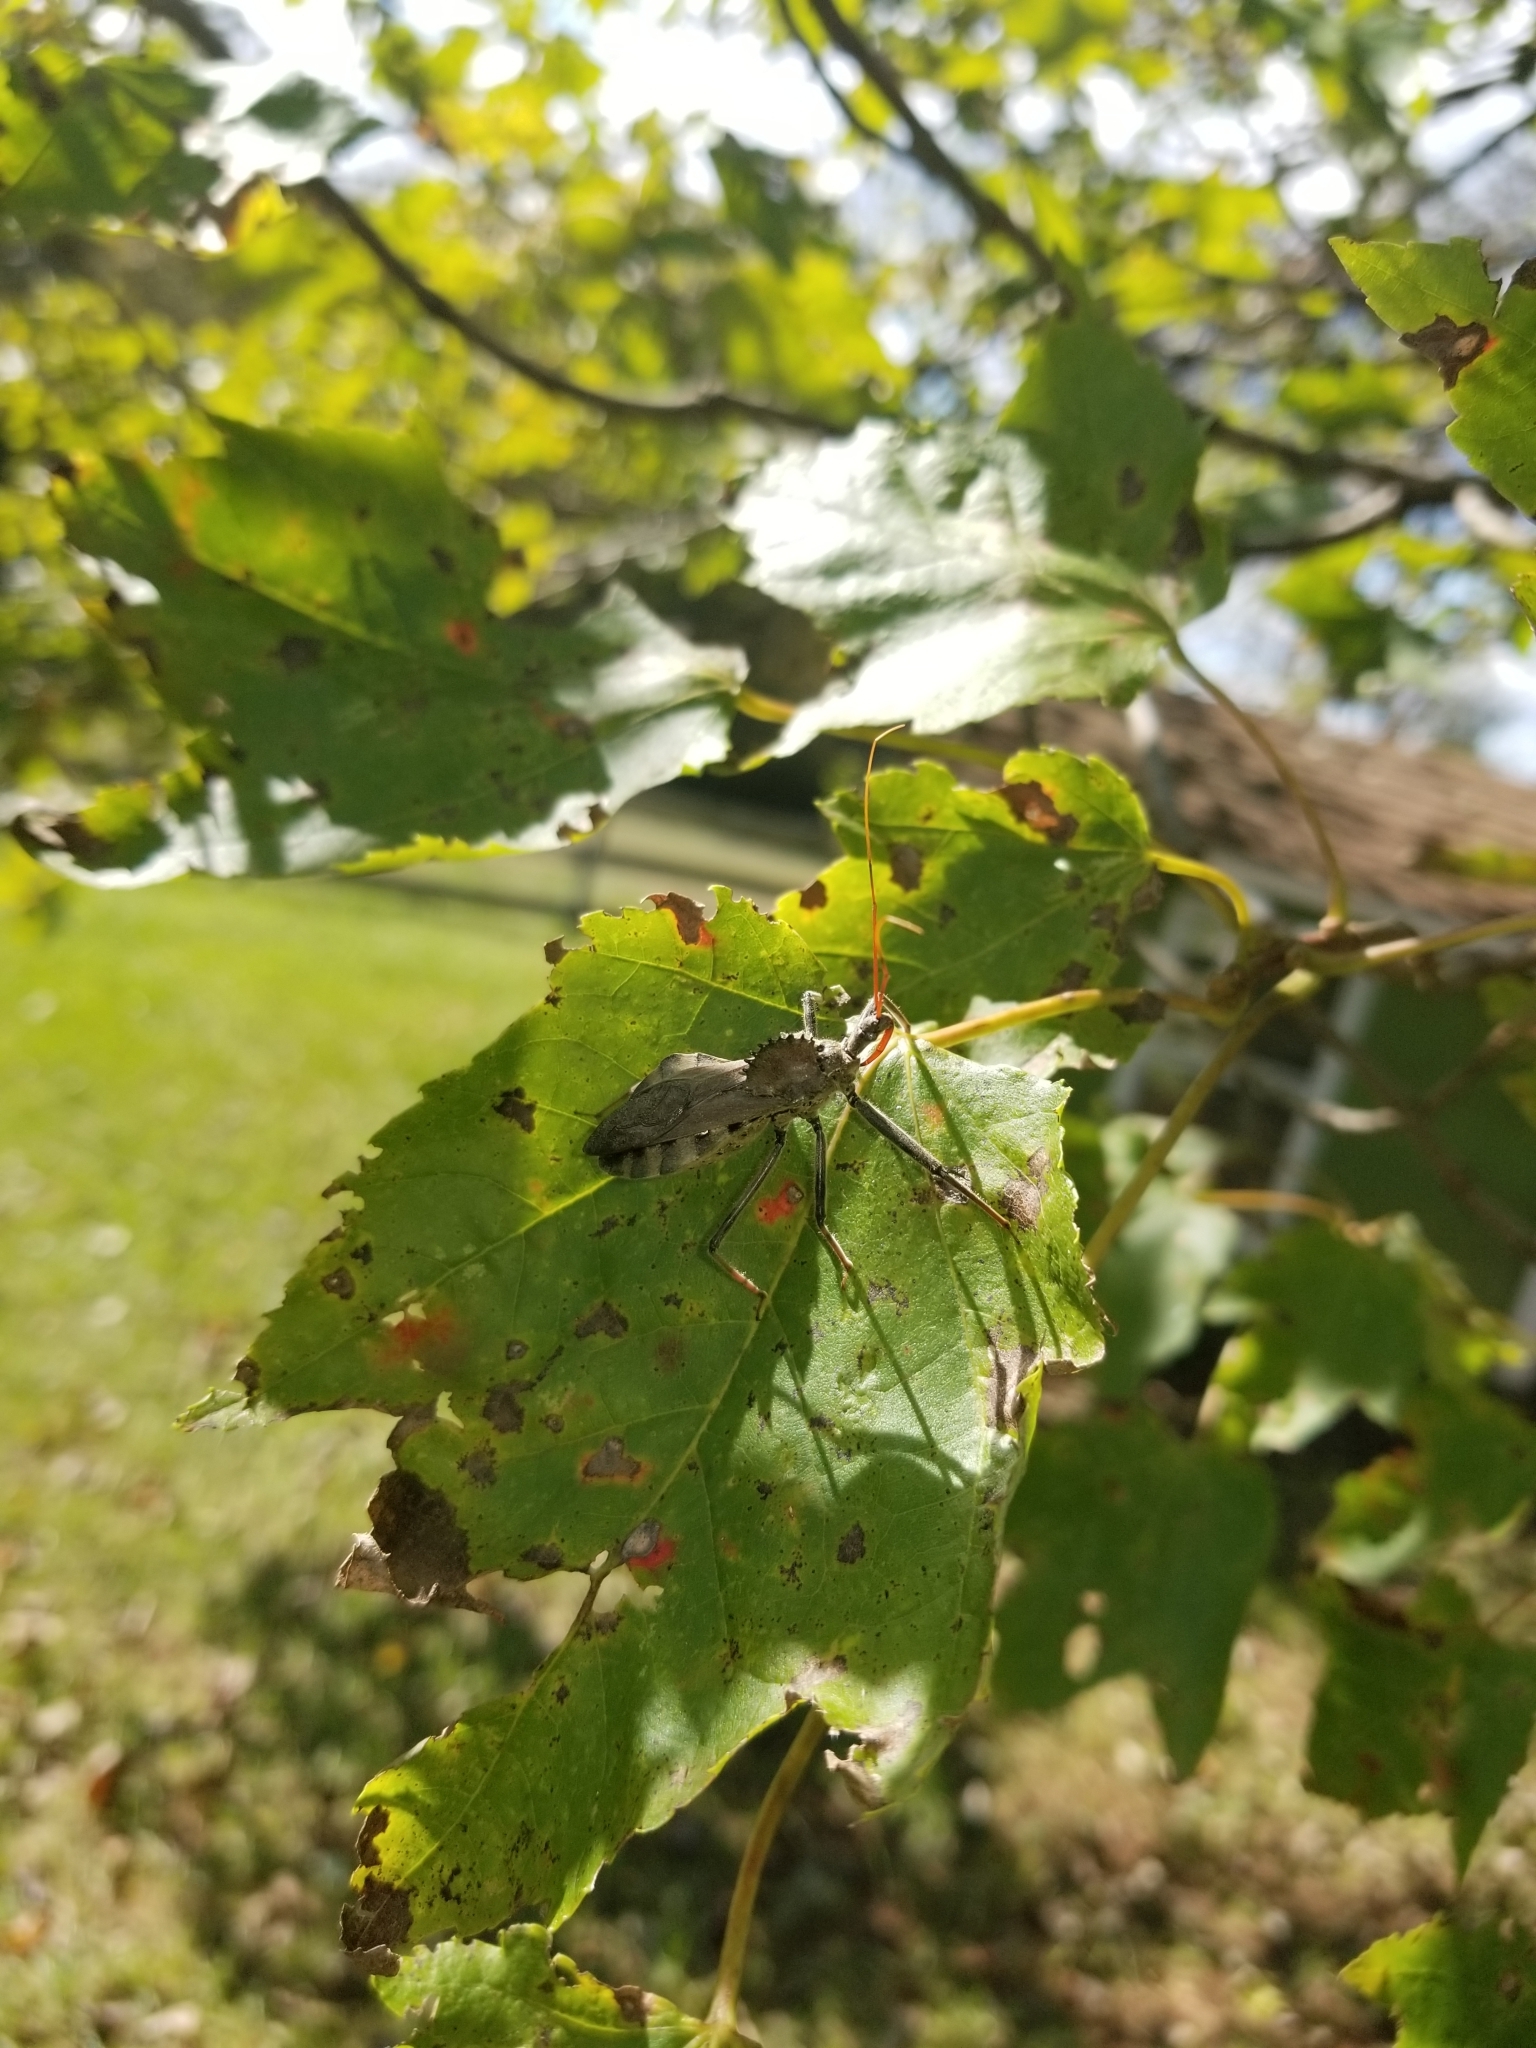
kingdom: Animalia
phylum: Arthropoda
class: Insecta
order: Hemiptera
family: Reduviidae
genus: Arilus
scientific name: Arilus cristatus
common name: North american wheel bug
